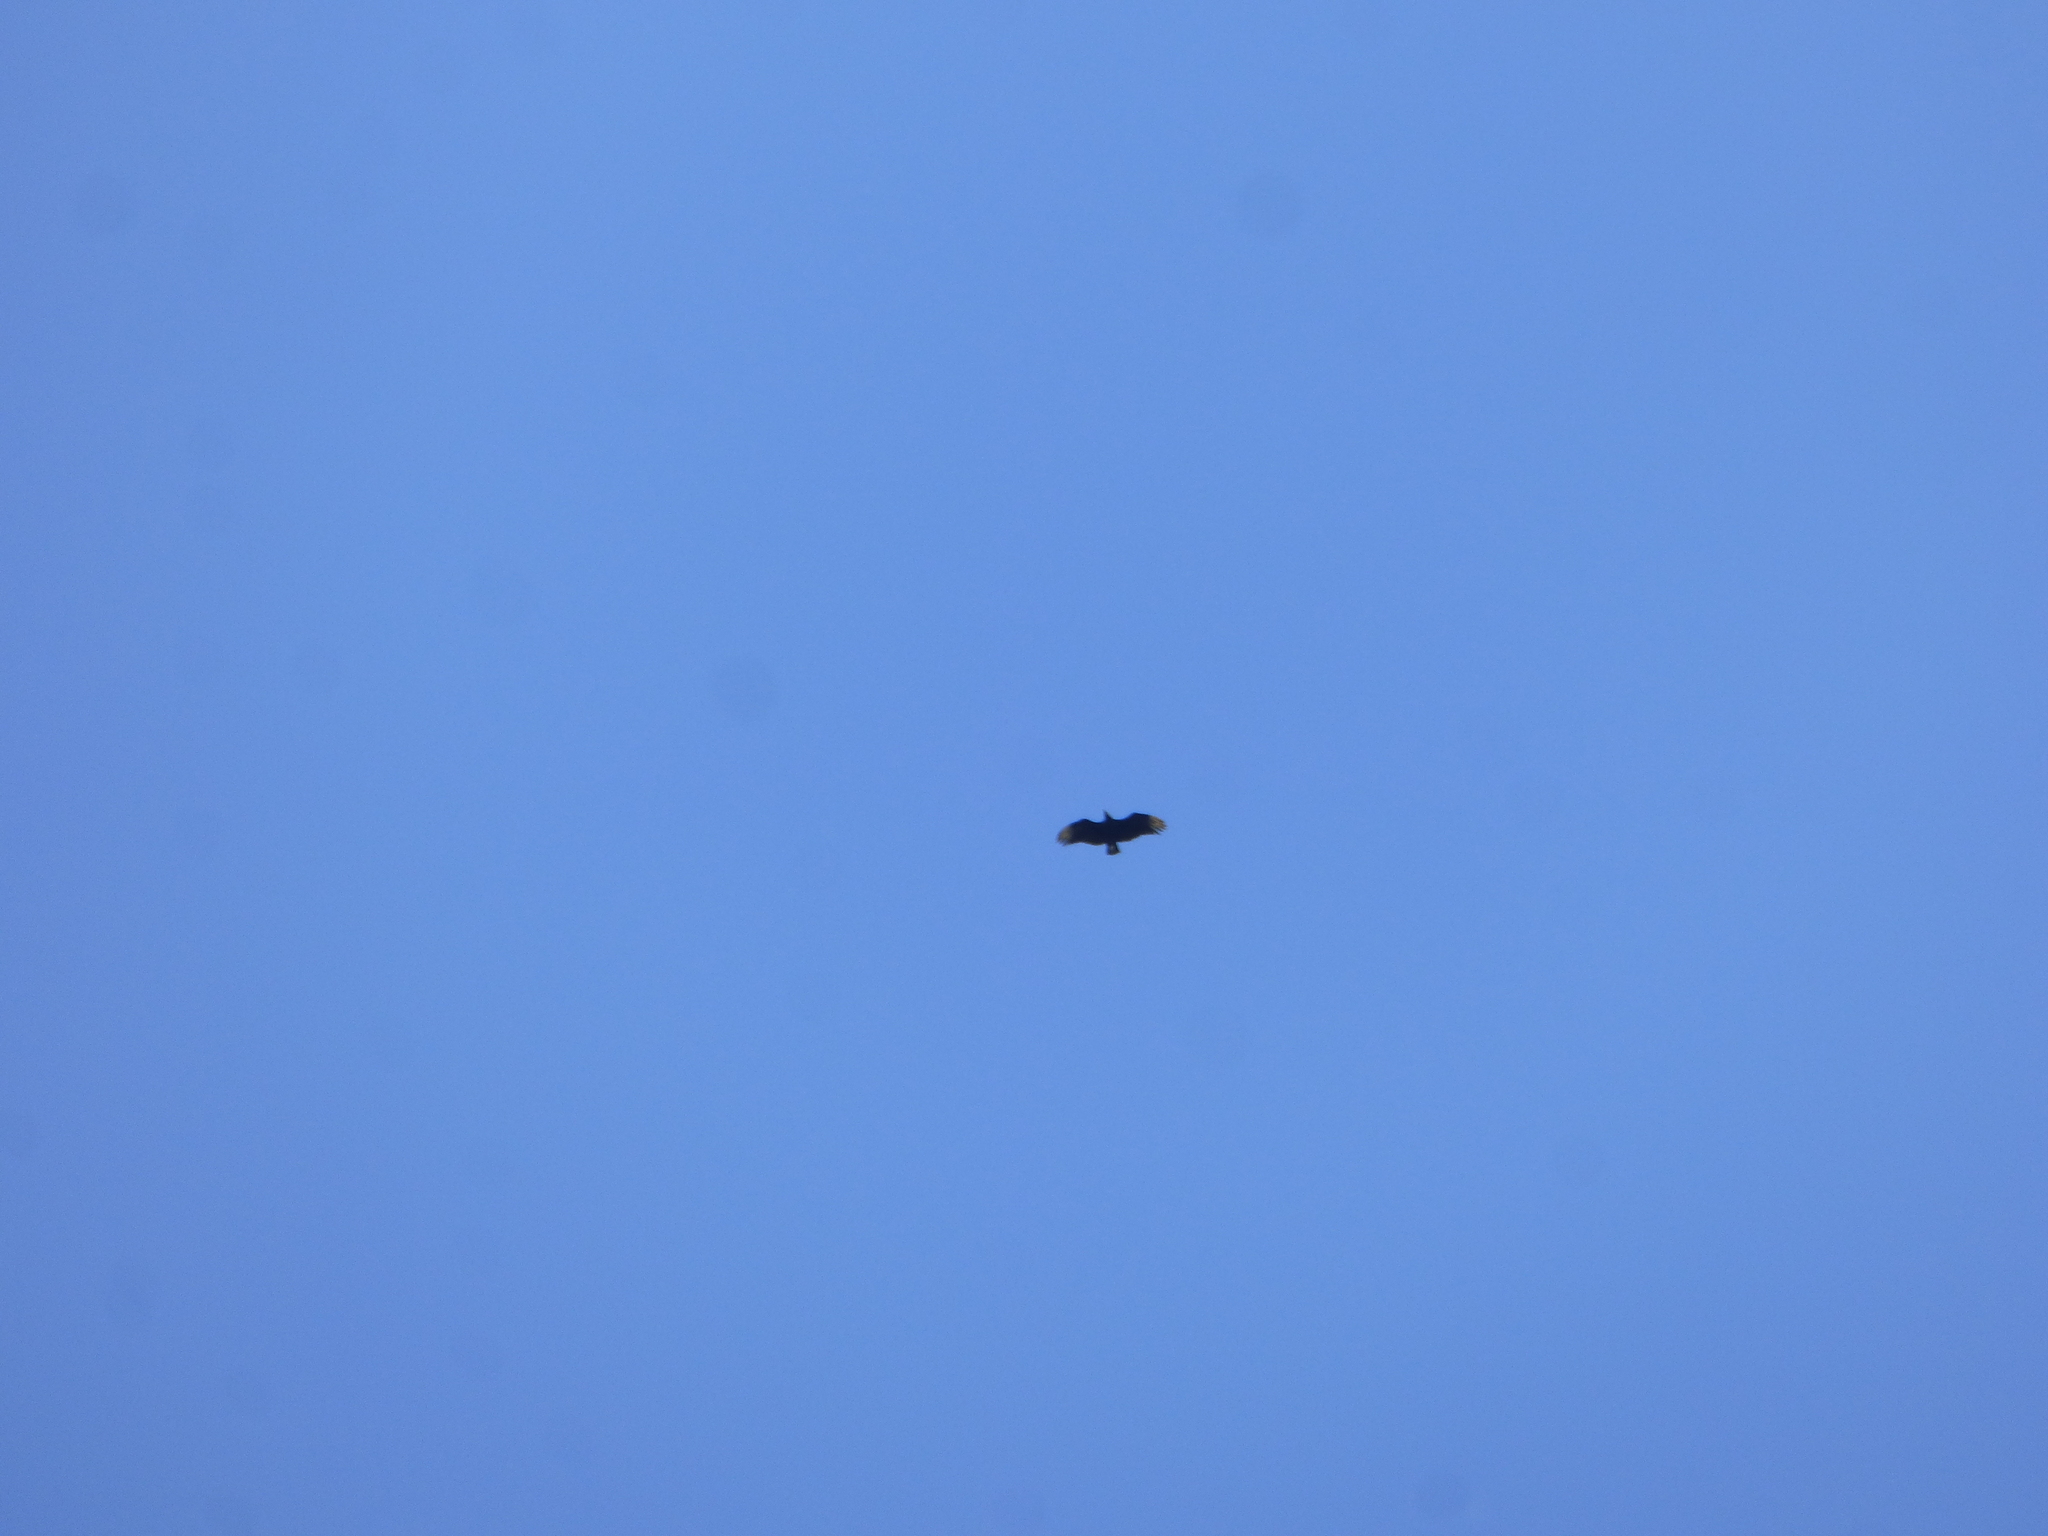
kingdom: Animalia
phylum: Chordata
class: Aves
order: Accipitriformes
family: Cathartidae
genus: Coragyps
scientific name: Coragyps atratus
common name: Black vulture
